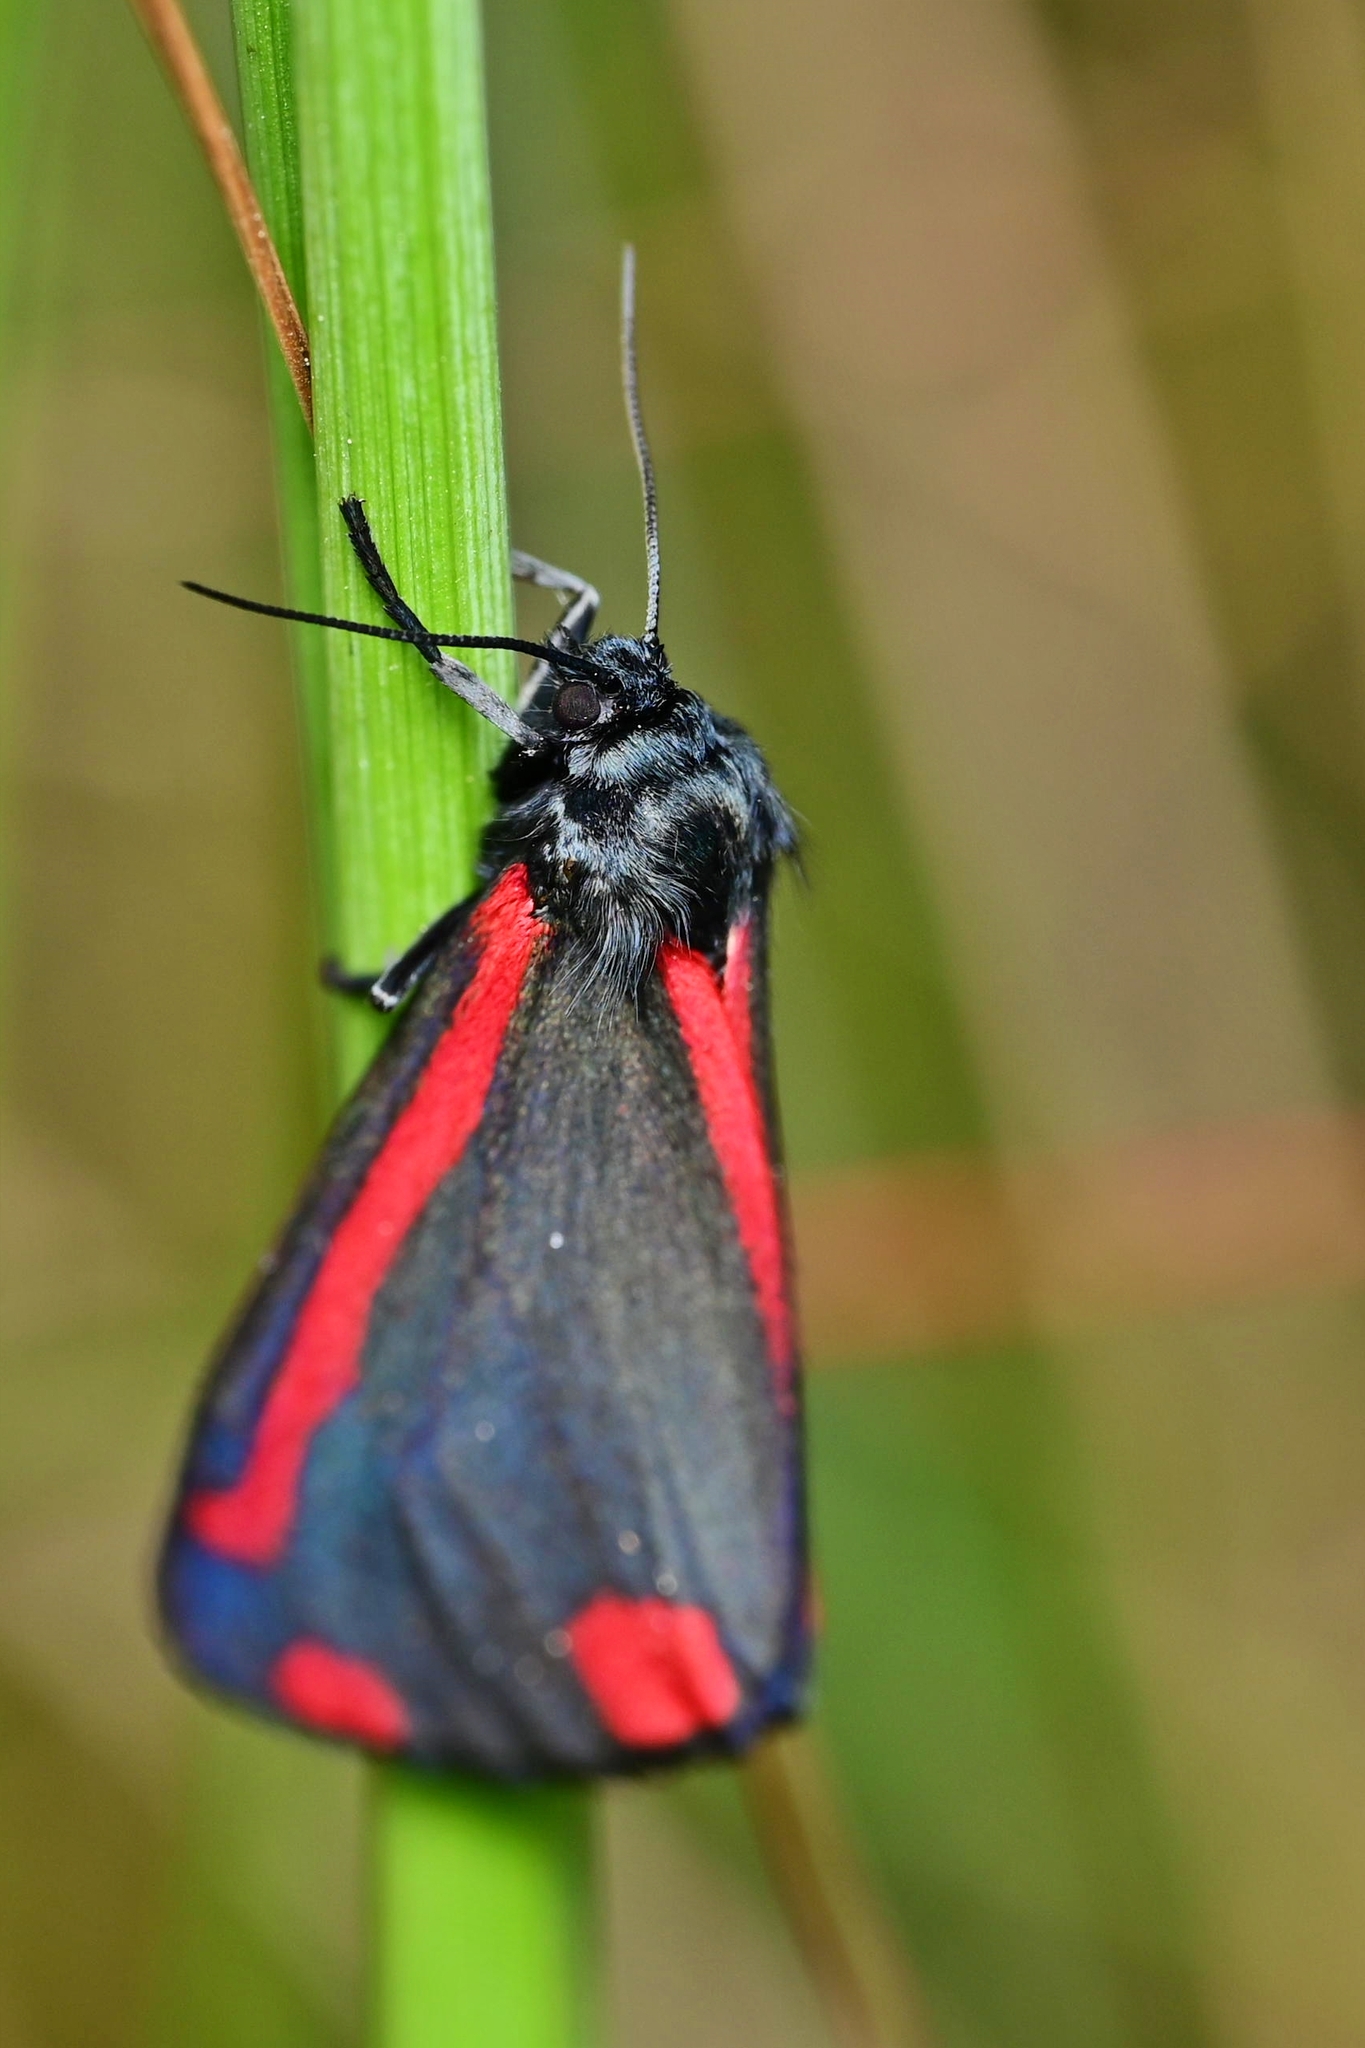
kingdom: Animalia
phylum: Arthropoda
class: Insecta
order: Lepidoptera
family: Erebidae
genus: Tyria
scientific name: Tyria jacobaeae
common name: Cinnabar
